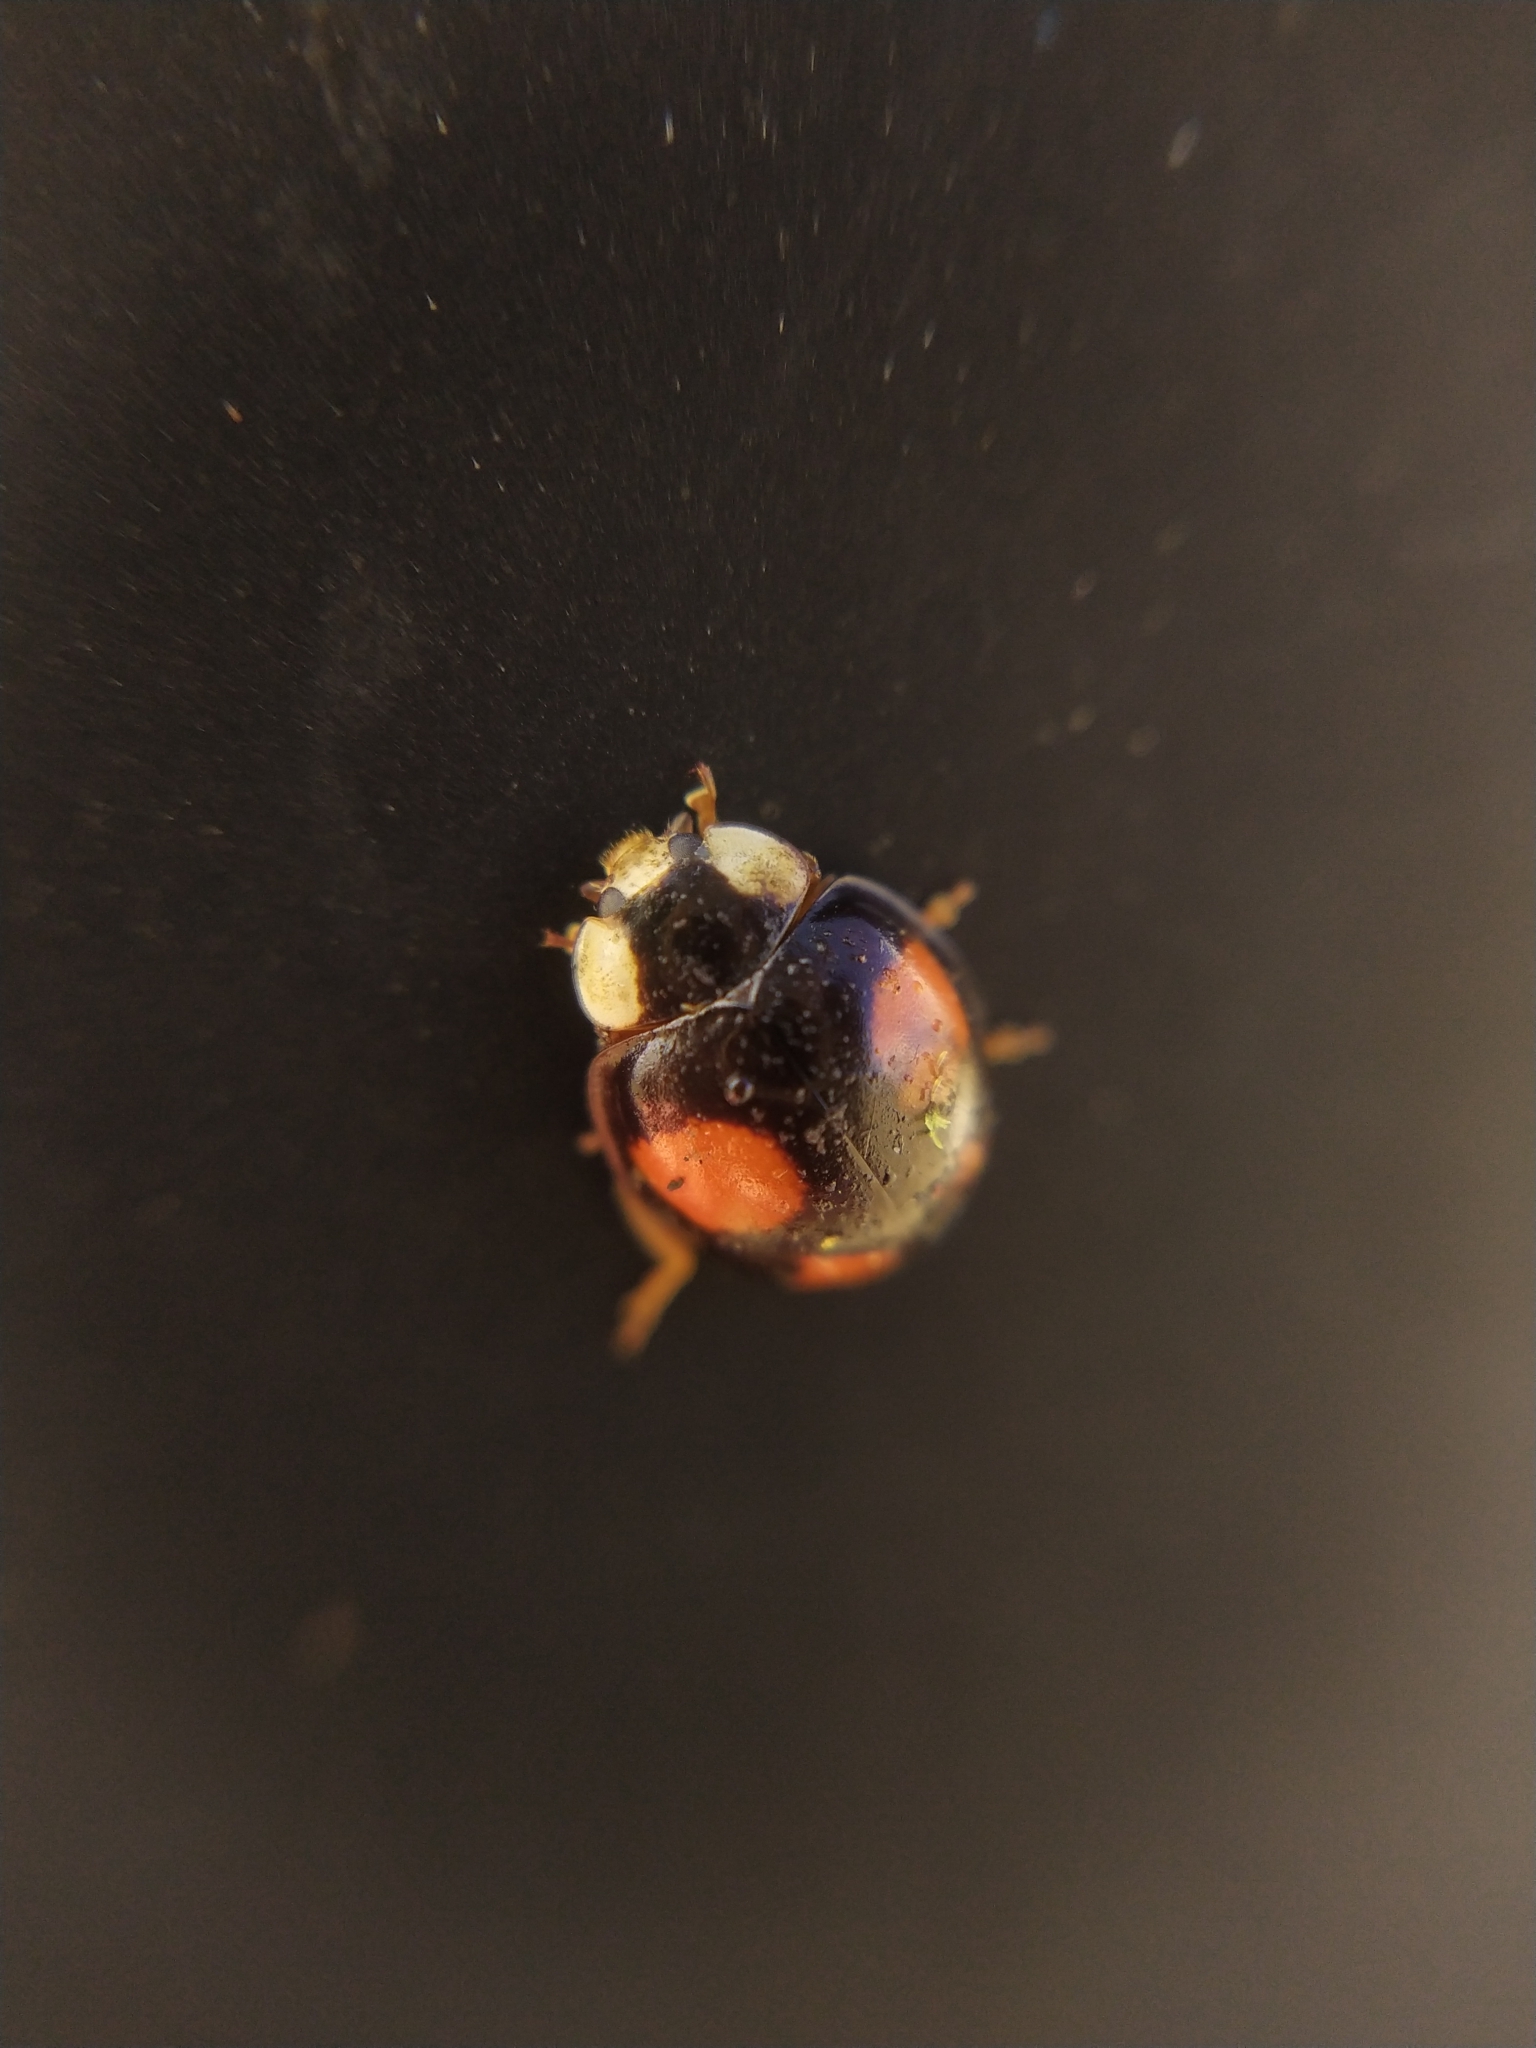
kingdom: Fungi
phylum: Ascomycota
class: Laboulbeniomycetes
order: Laboulbeniales
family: Laboulbeniaceae
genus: Hesperomyces
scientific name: Hesperomyces harmoniae
